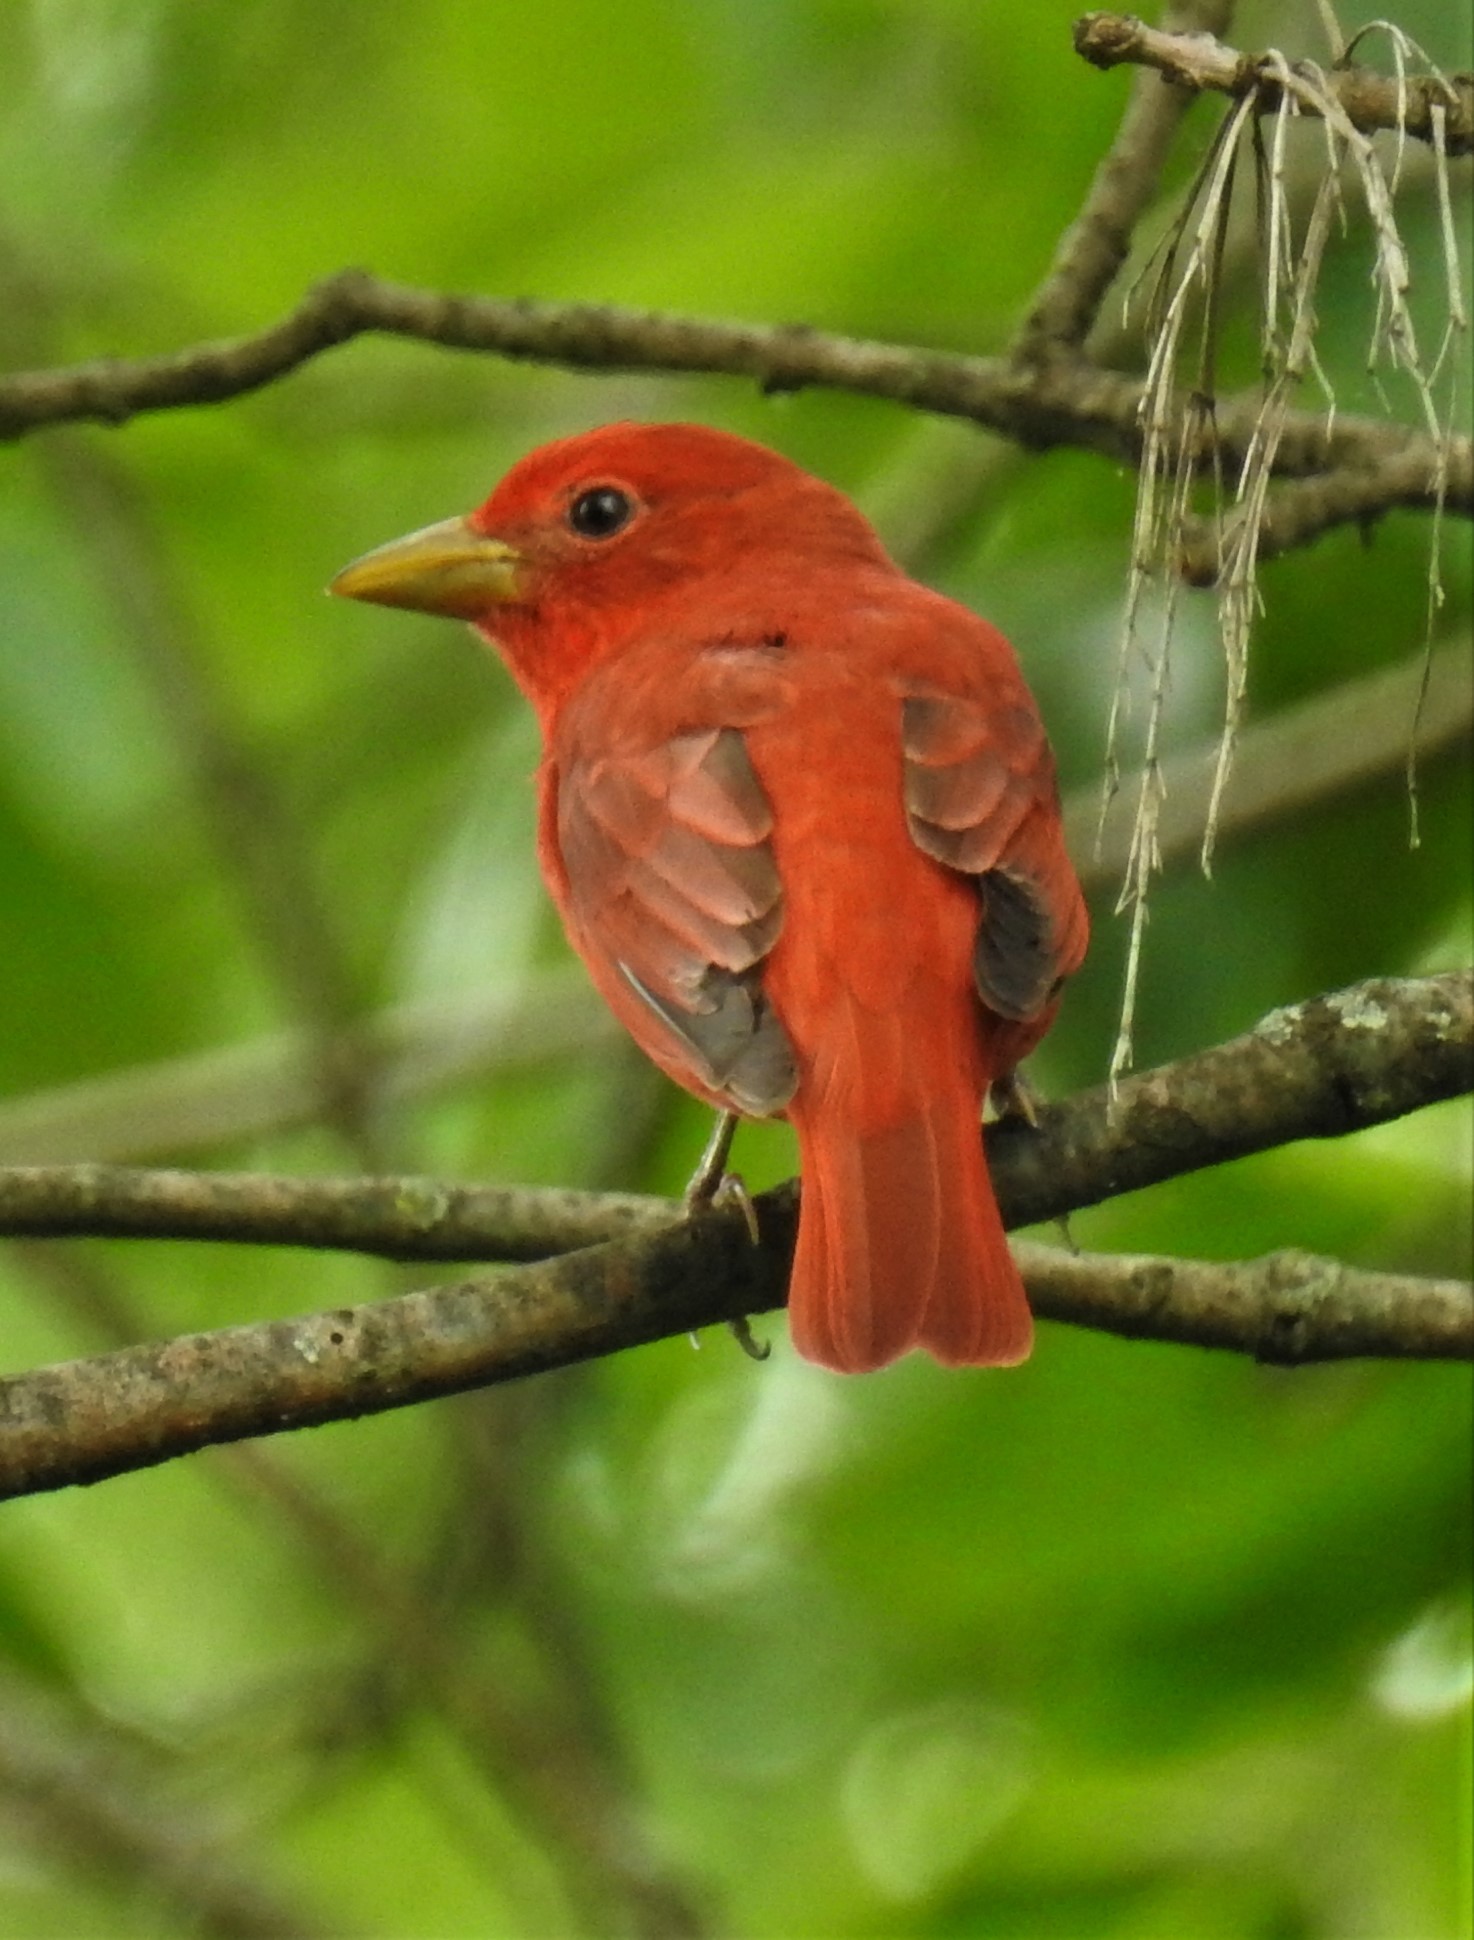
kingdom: Animalia
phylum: Chordata
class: Aves
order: Passeriformes
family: Cardinalidae
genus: Piranga
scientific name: Piranga rubra
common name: Summer tanager
